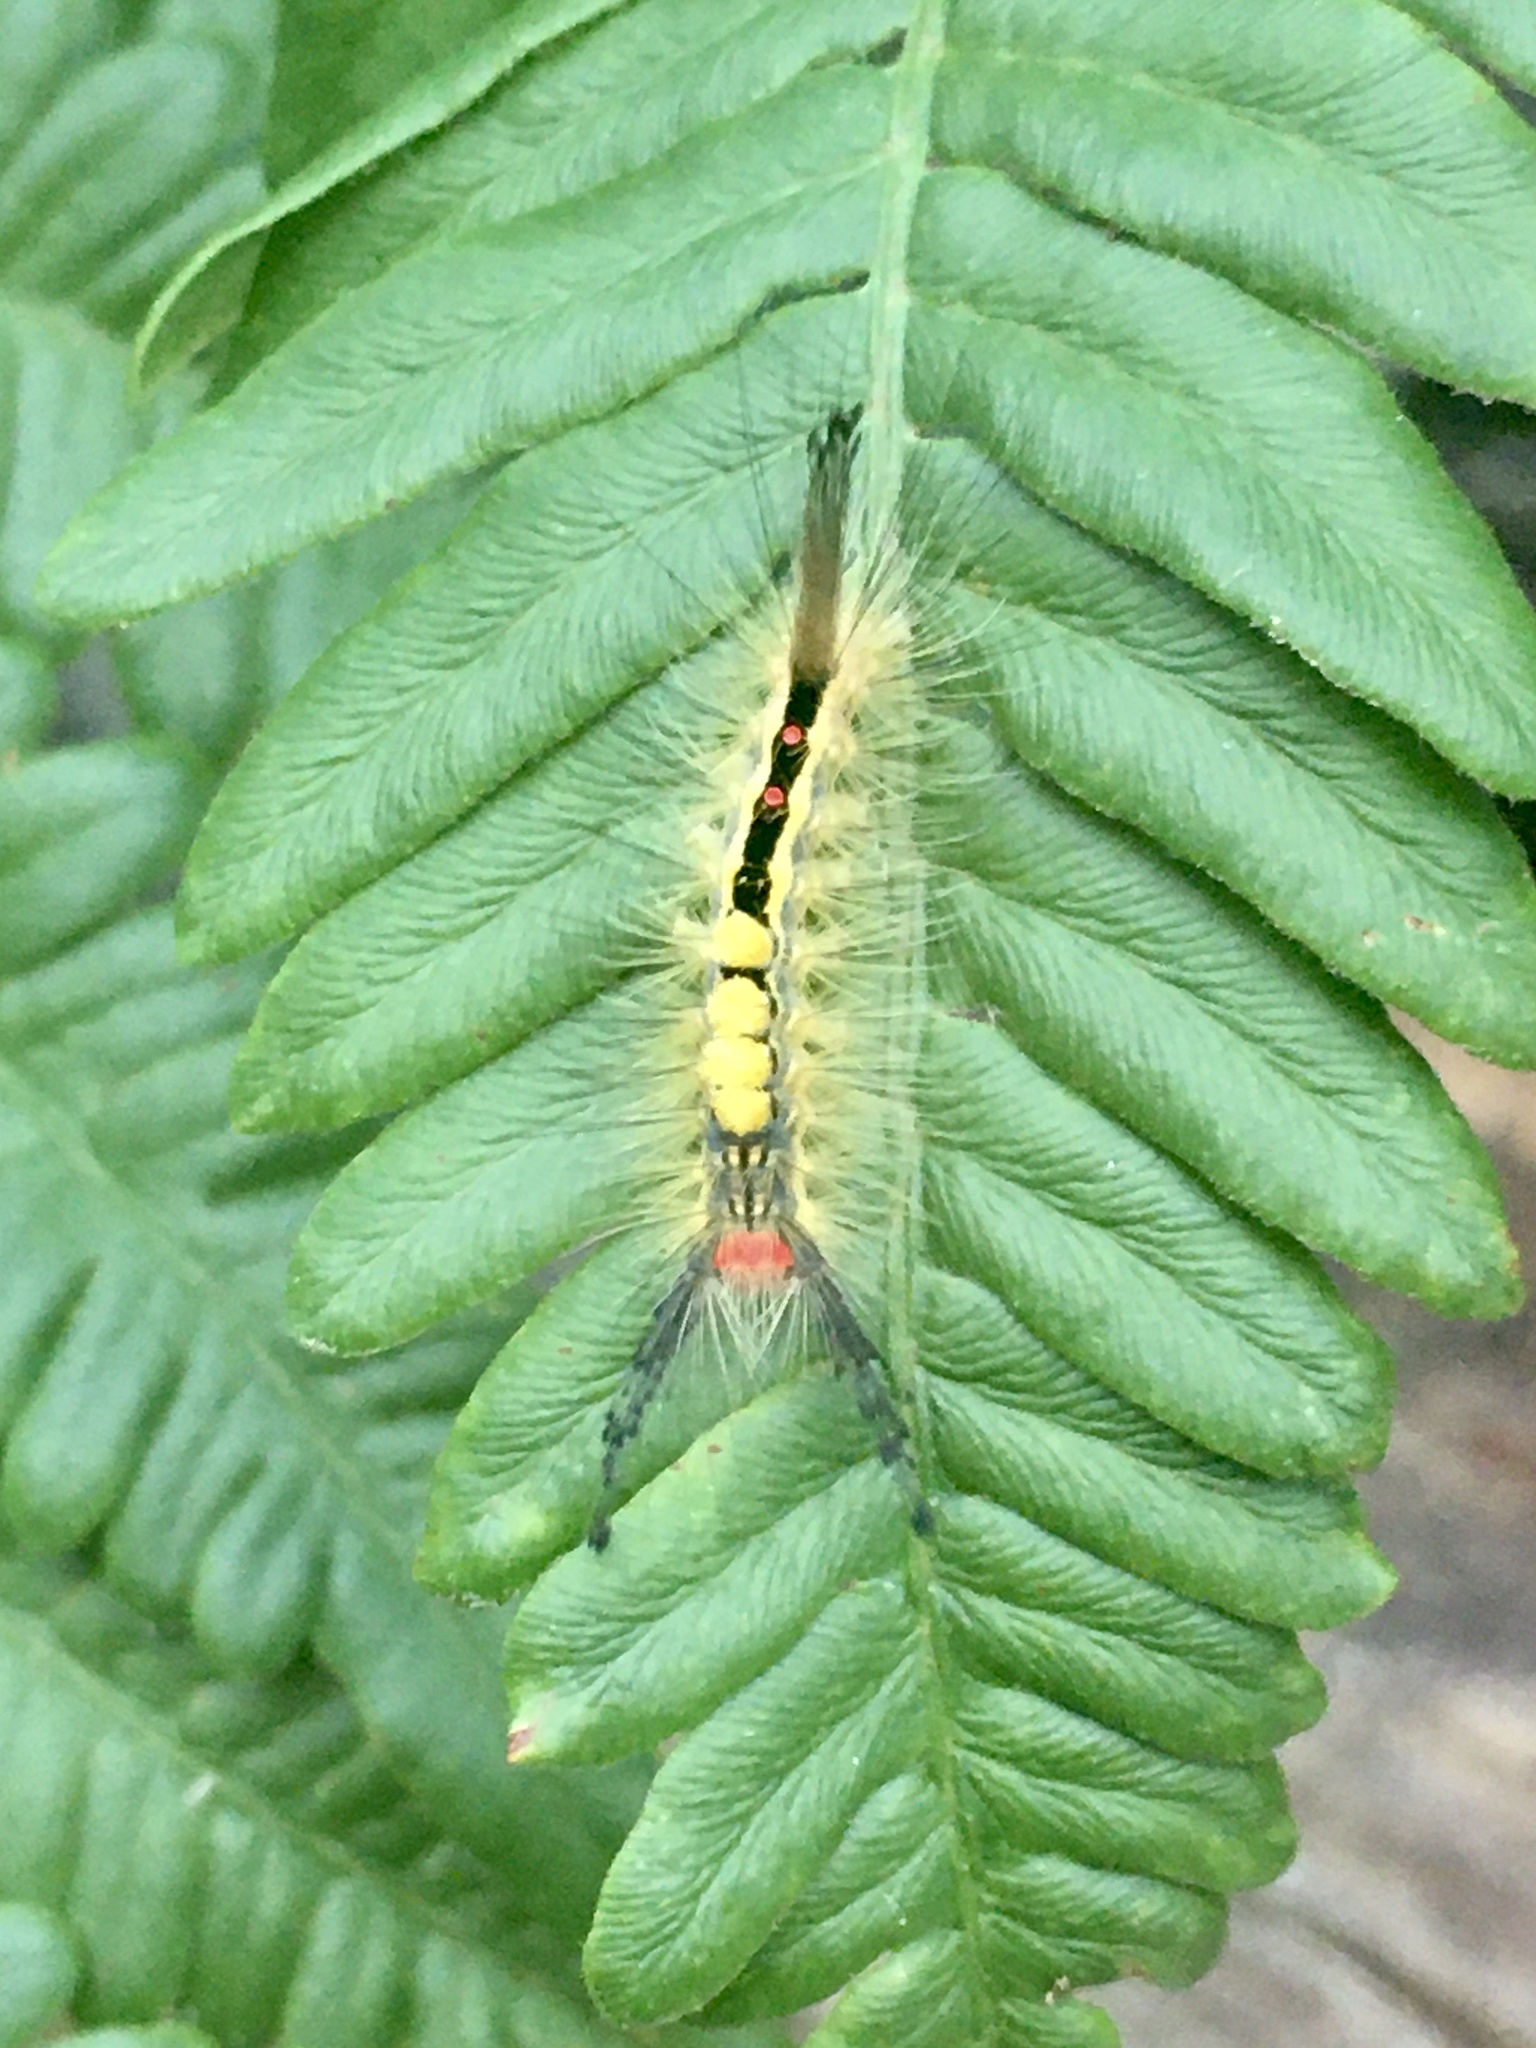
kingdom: Animalia
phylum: Arthropoda
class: Insecta
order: Lepidoptera
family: Erebidae
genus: Orgyia
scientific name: Orgyia leucostigma
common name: White-marked tussock moth
